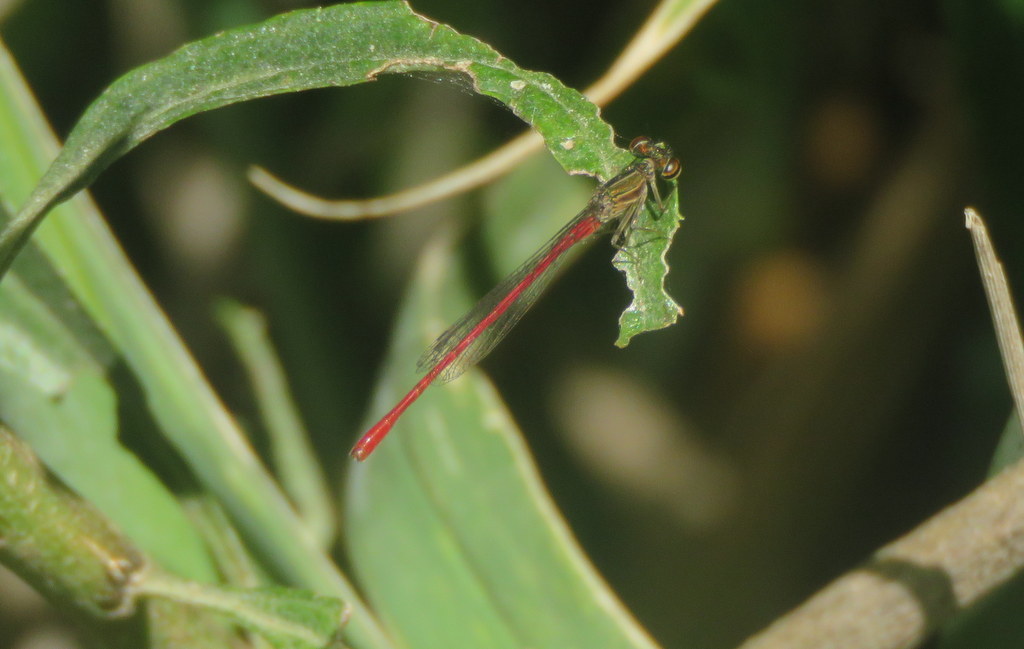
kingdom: Animalia
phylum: Arthropoda
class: Insecta
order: Odonata
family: Coenagrionidae
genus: Telebasis
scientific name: Telebasis willinki
